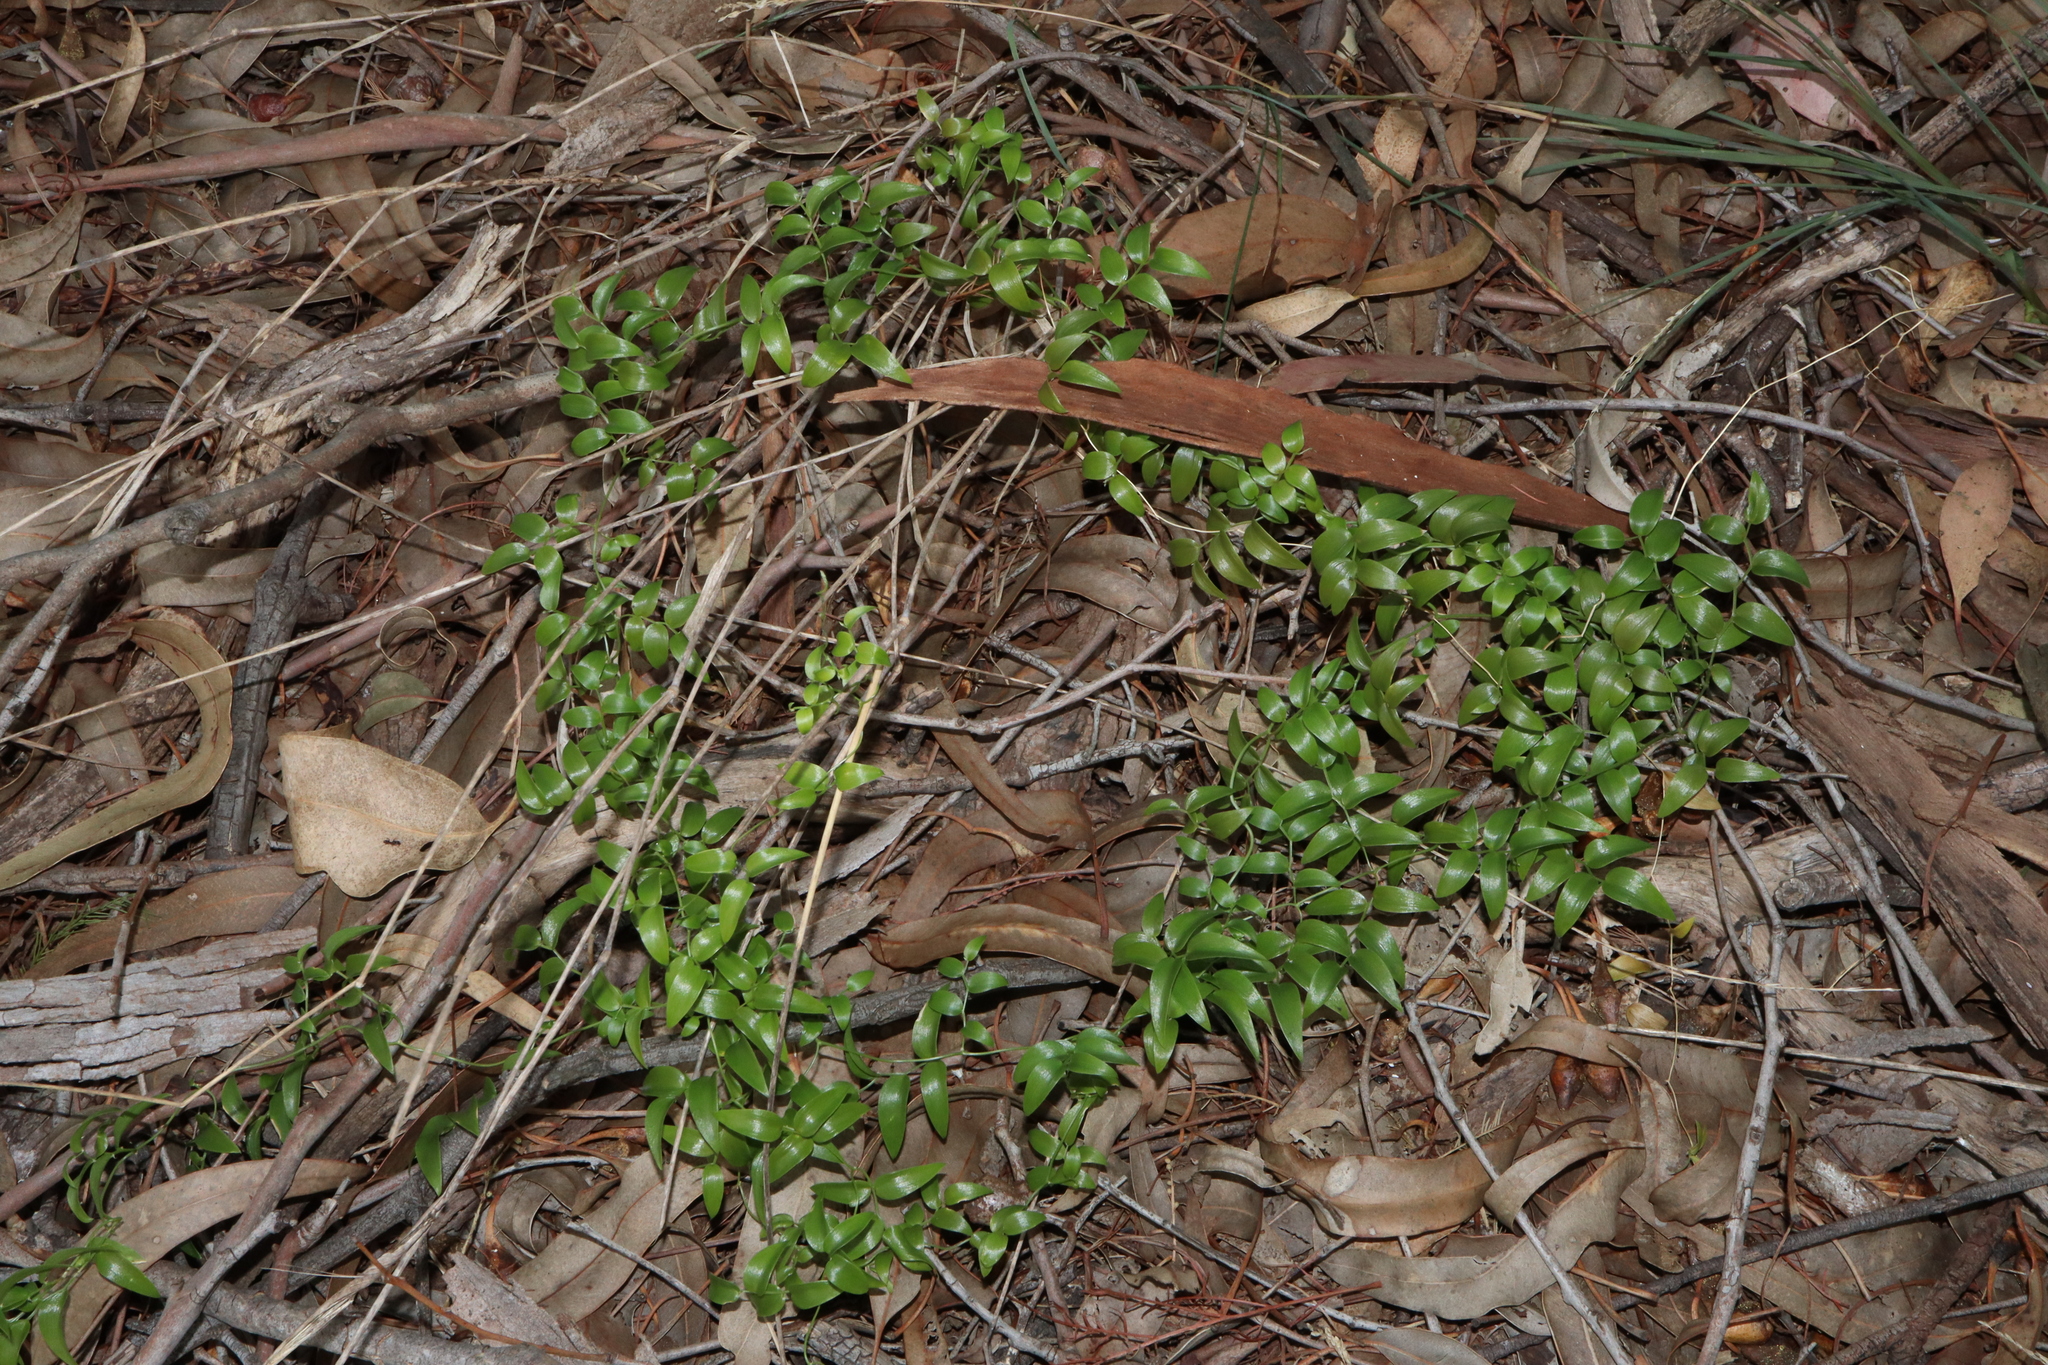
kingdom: Plantae
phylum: Tracheophyta
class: Liliopsida
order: Asparagales
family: Asparagaceae
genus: Asparagus
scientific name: Asparagus asparagoides
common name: African asparagus fern
